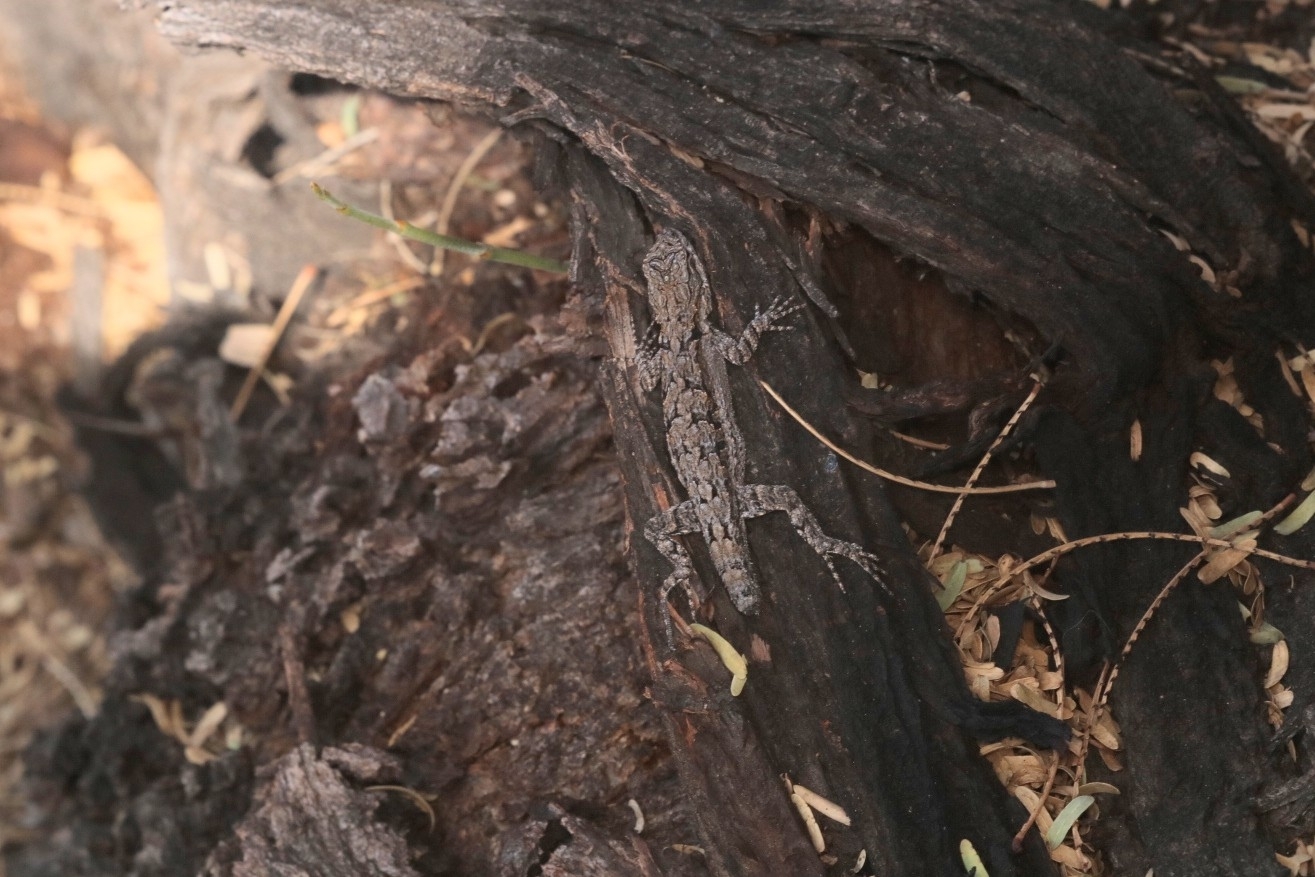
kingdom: Animalia
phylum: Chordata
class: Squamata
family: Phrynosomatidae
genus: Urosaurus
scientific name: Urosaurus ornatus
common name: Ornate tree lizard
